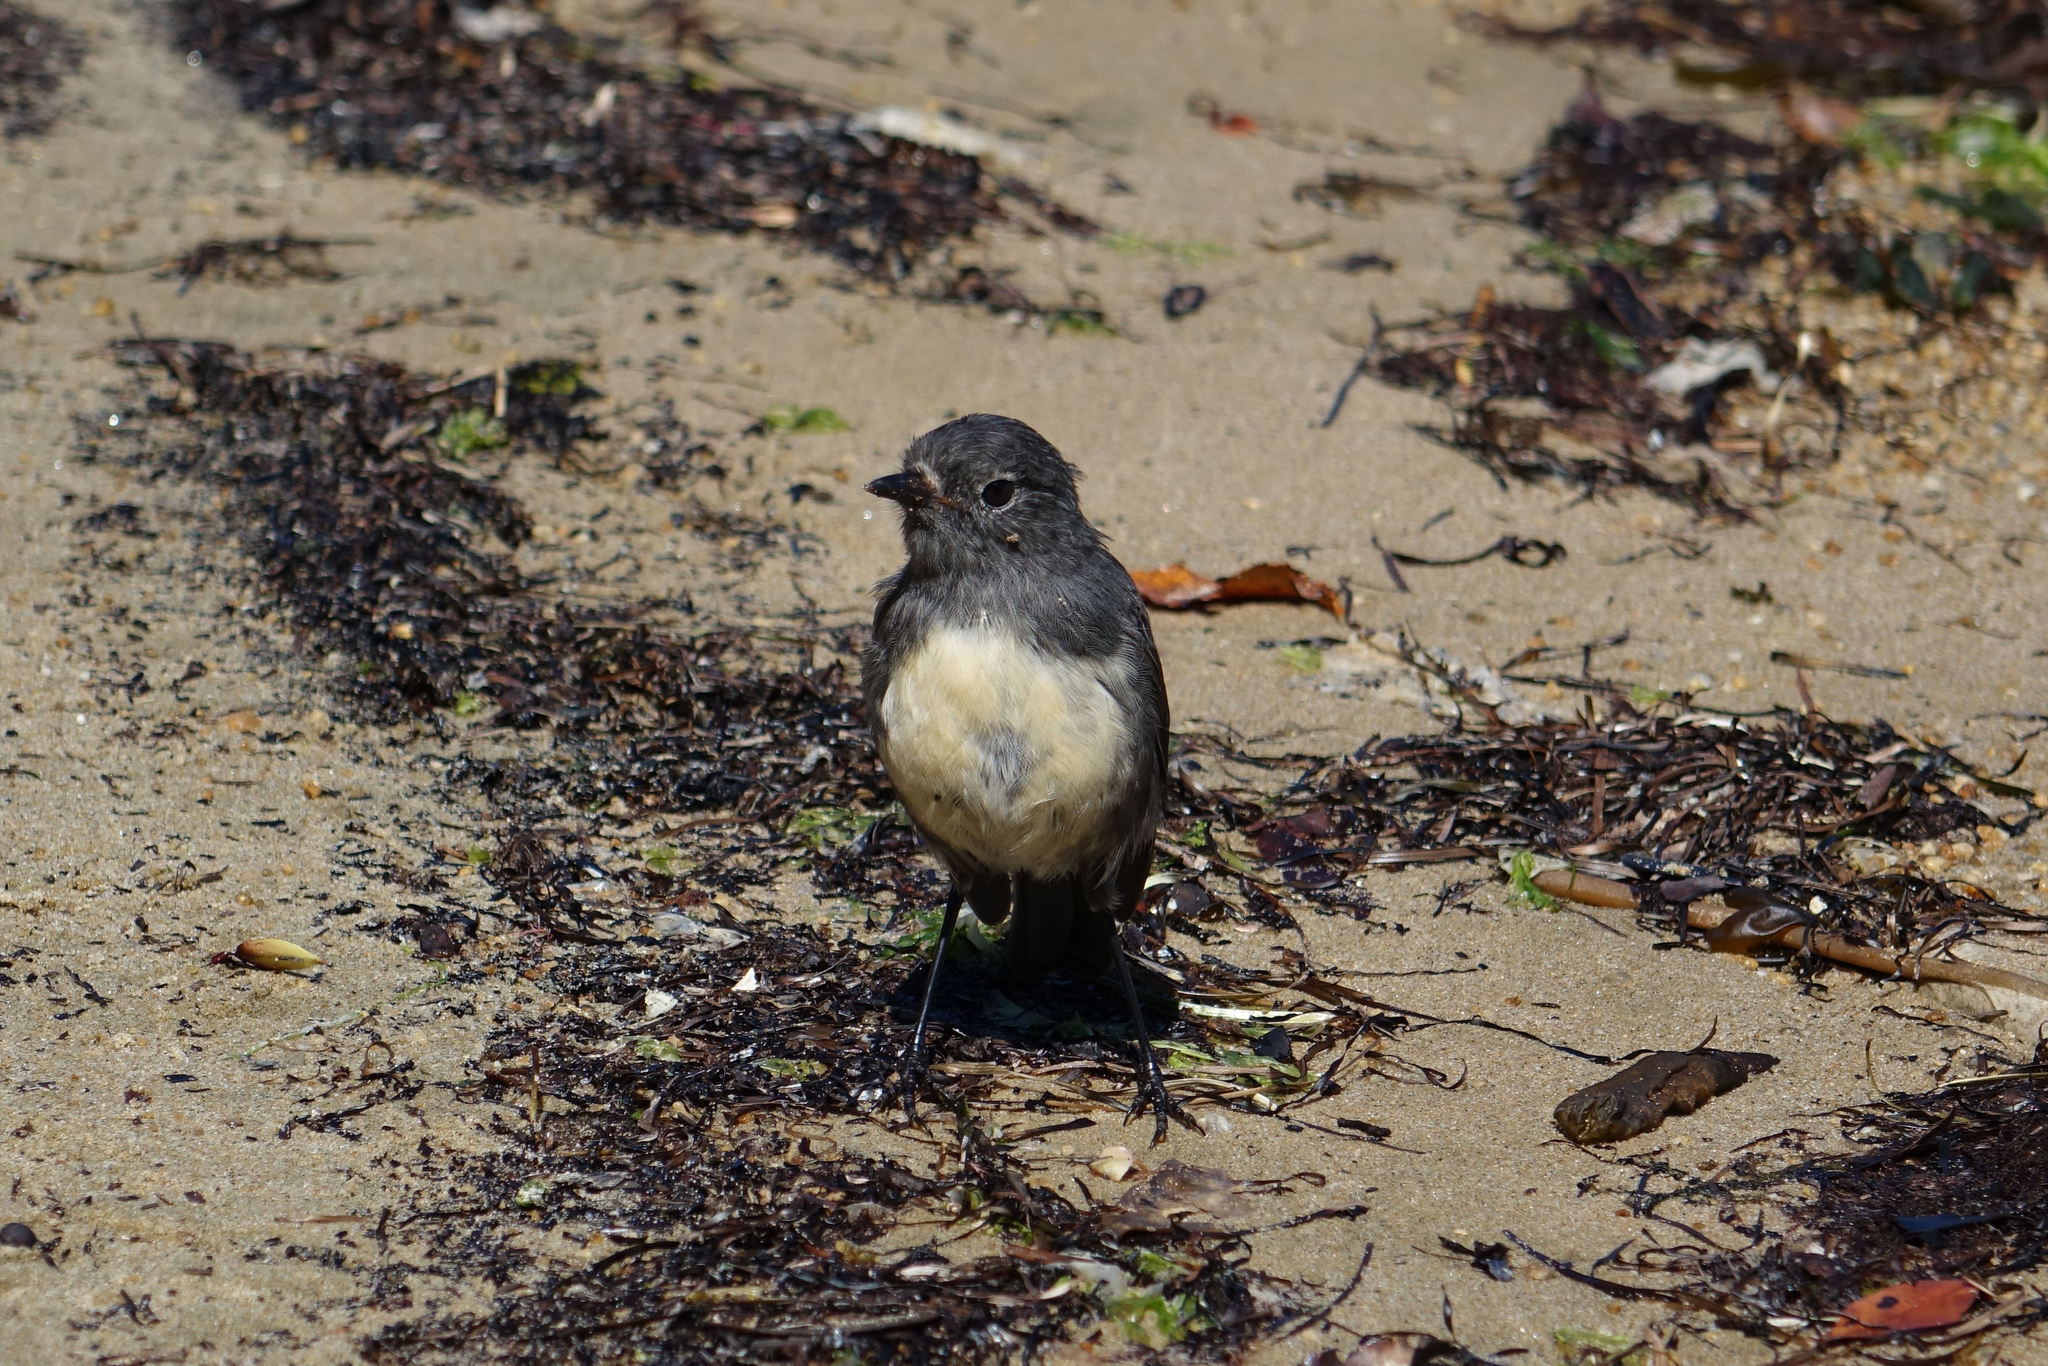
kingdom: Animalia
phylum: Chordata
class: Aves
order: Passeriformes
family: Petroicidae
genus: Petroica
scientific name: Petroica australis
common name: New zealand robin
